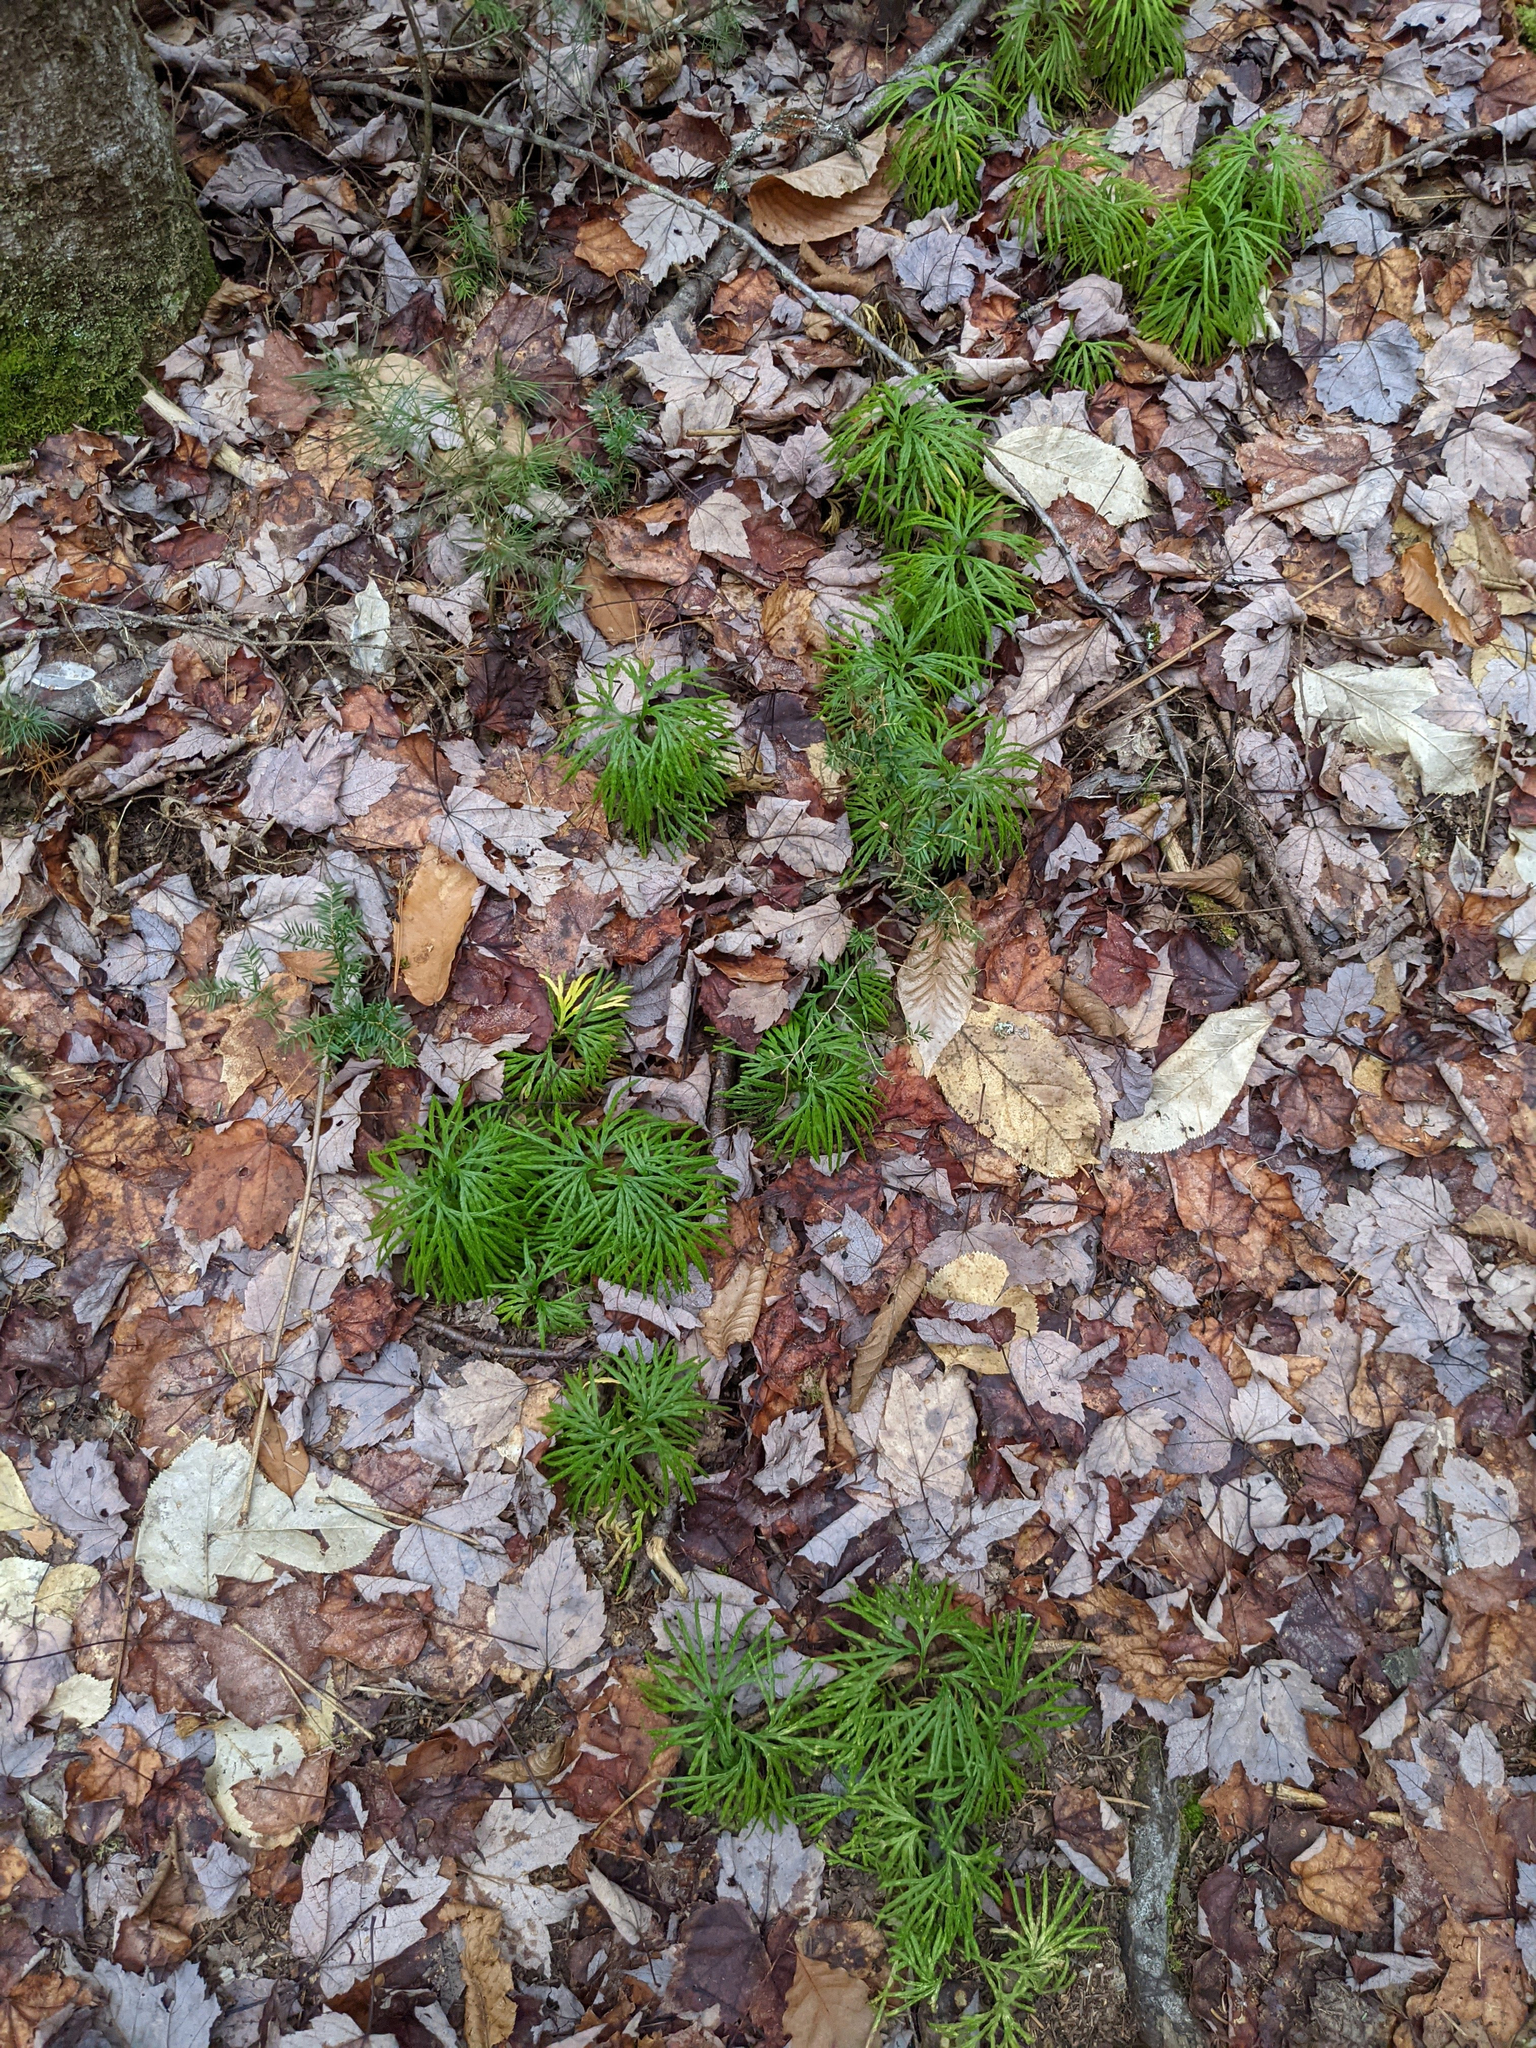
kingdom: Plantae
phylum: Tracheophyta
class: Lycopodiopsida
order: Lycopodiales
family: Lycopodiaceae
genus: Diphasiastrum
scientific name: Diphasiastrum digitatum
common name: Southern running-pine
